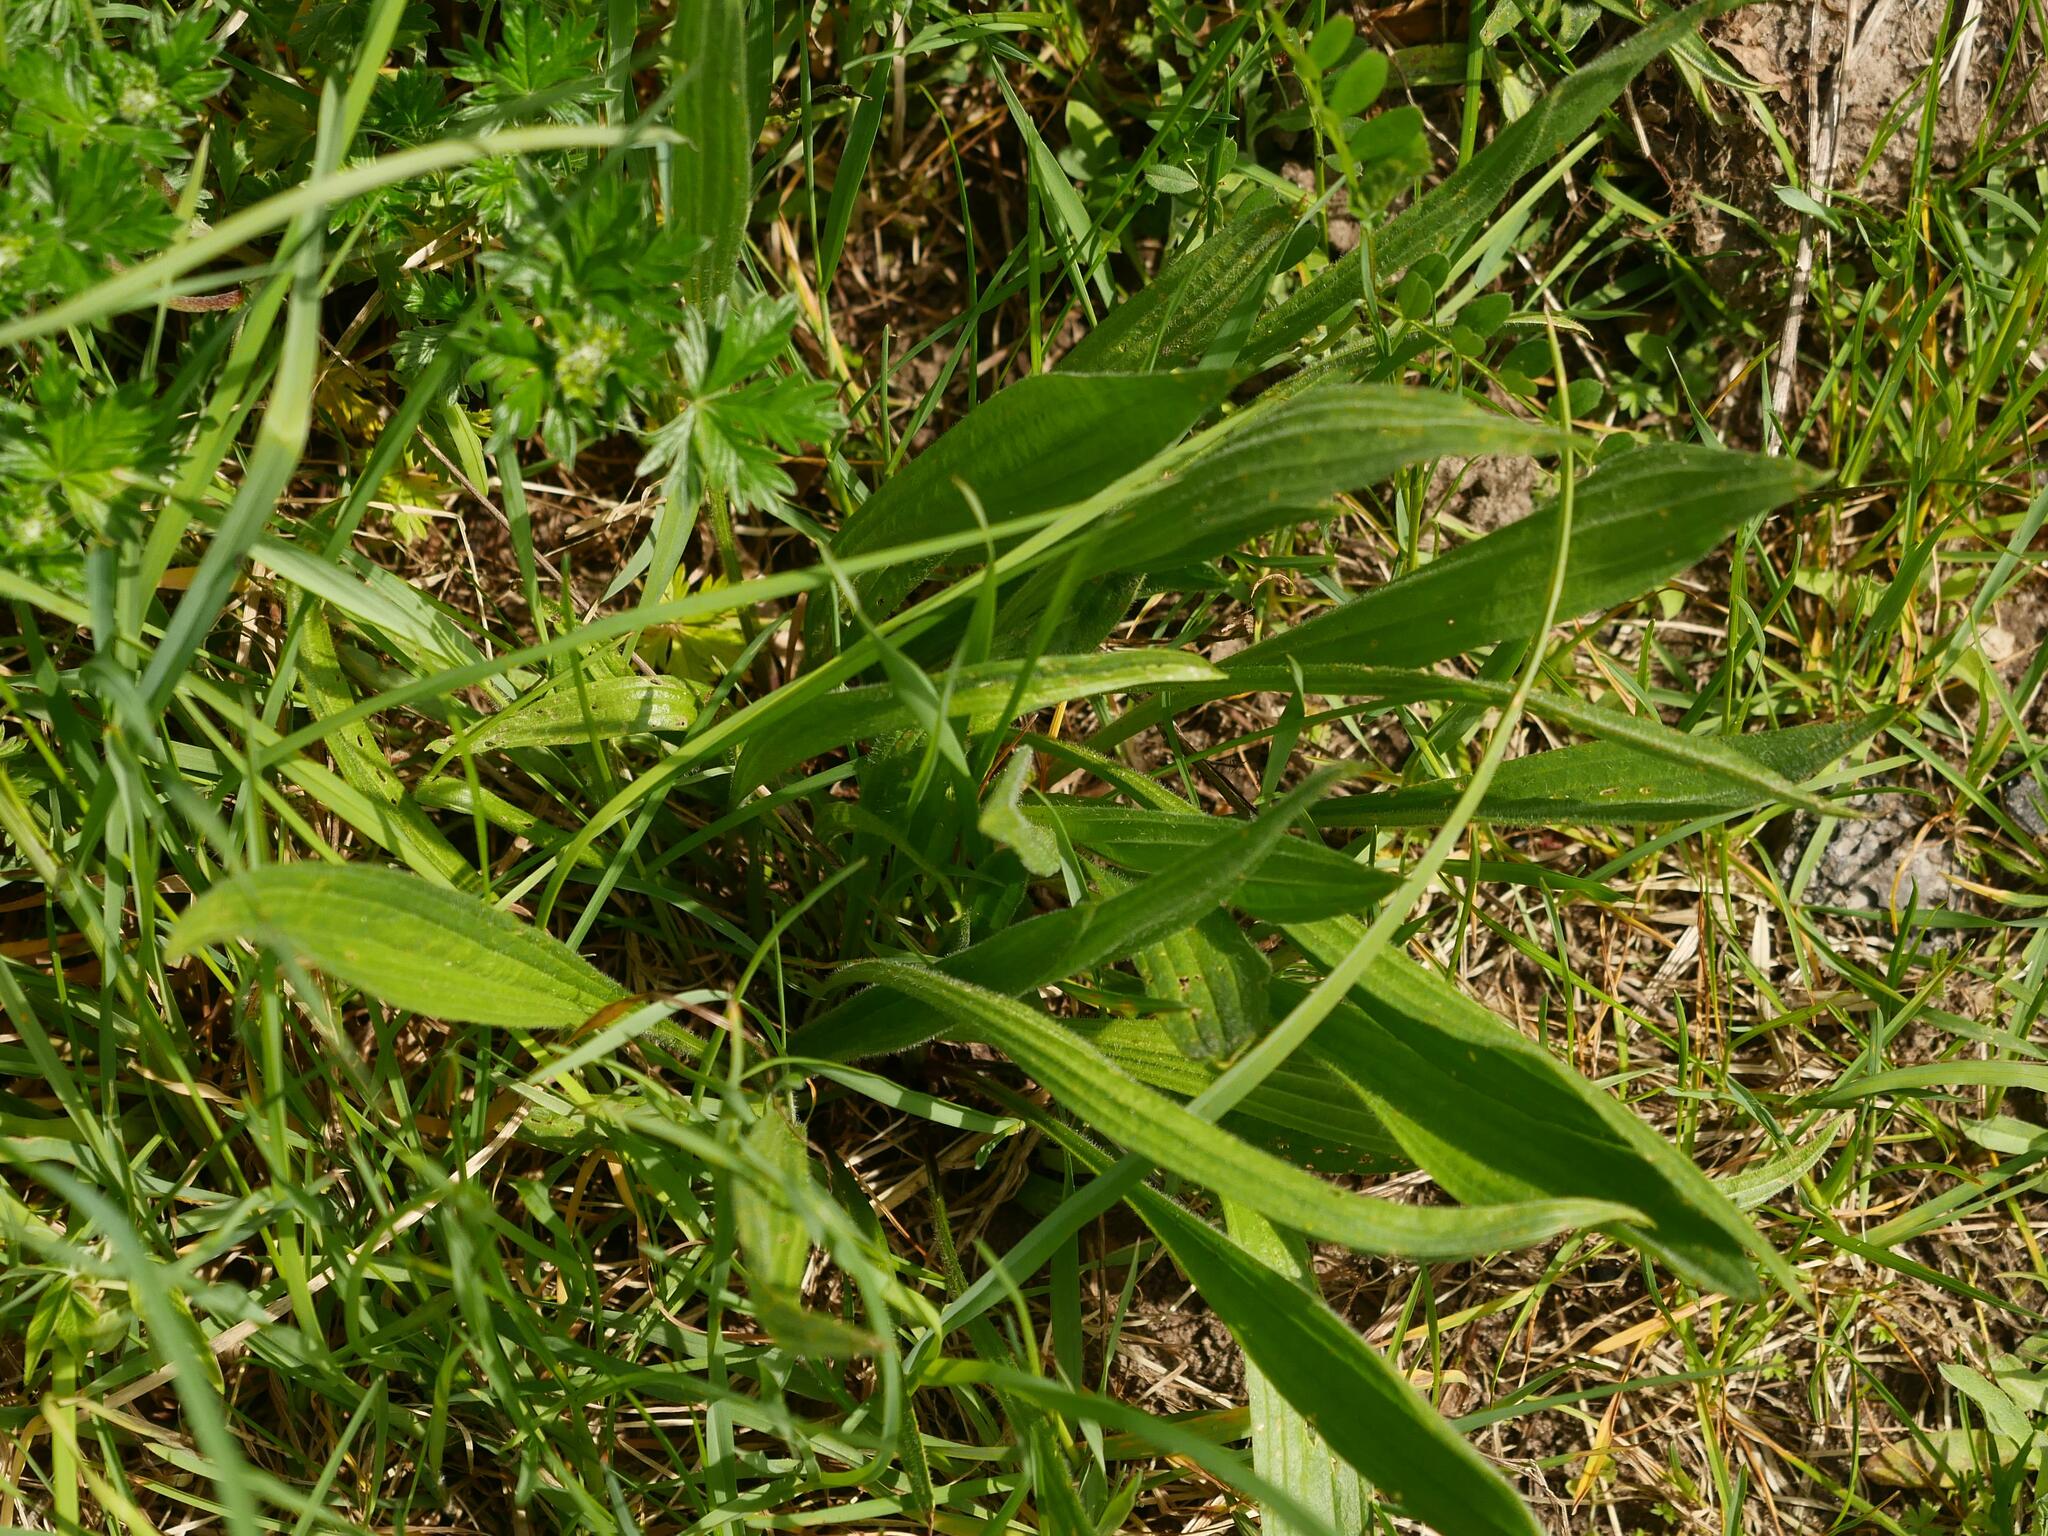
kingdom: Plantae
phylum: Tracheophyta
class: Magnoliopsida
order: Lamiales
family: Plantaginaceae
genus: Plantago
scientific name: Plantago lanceolata
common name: Ribwort plantain
